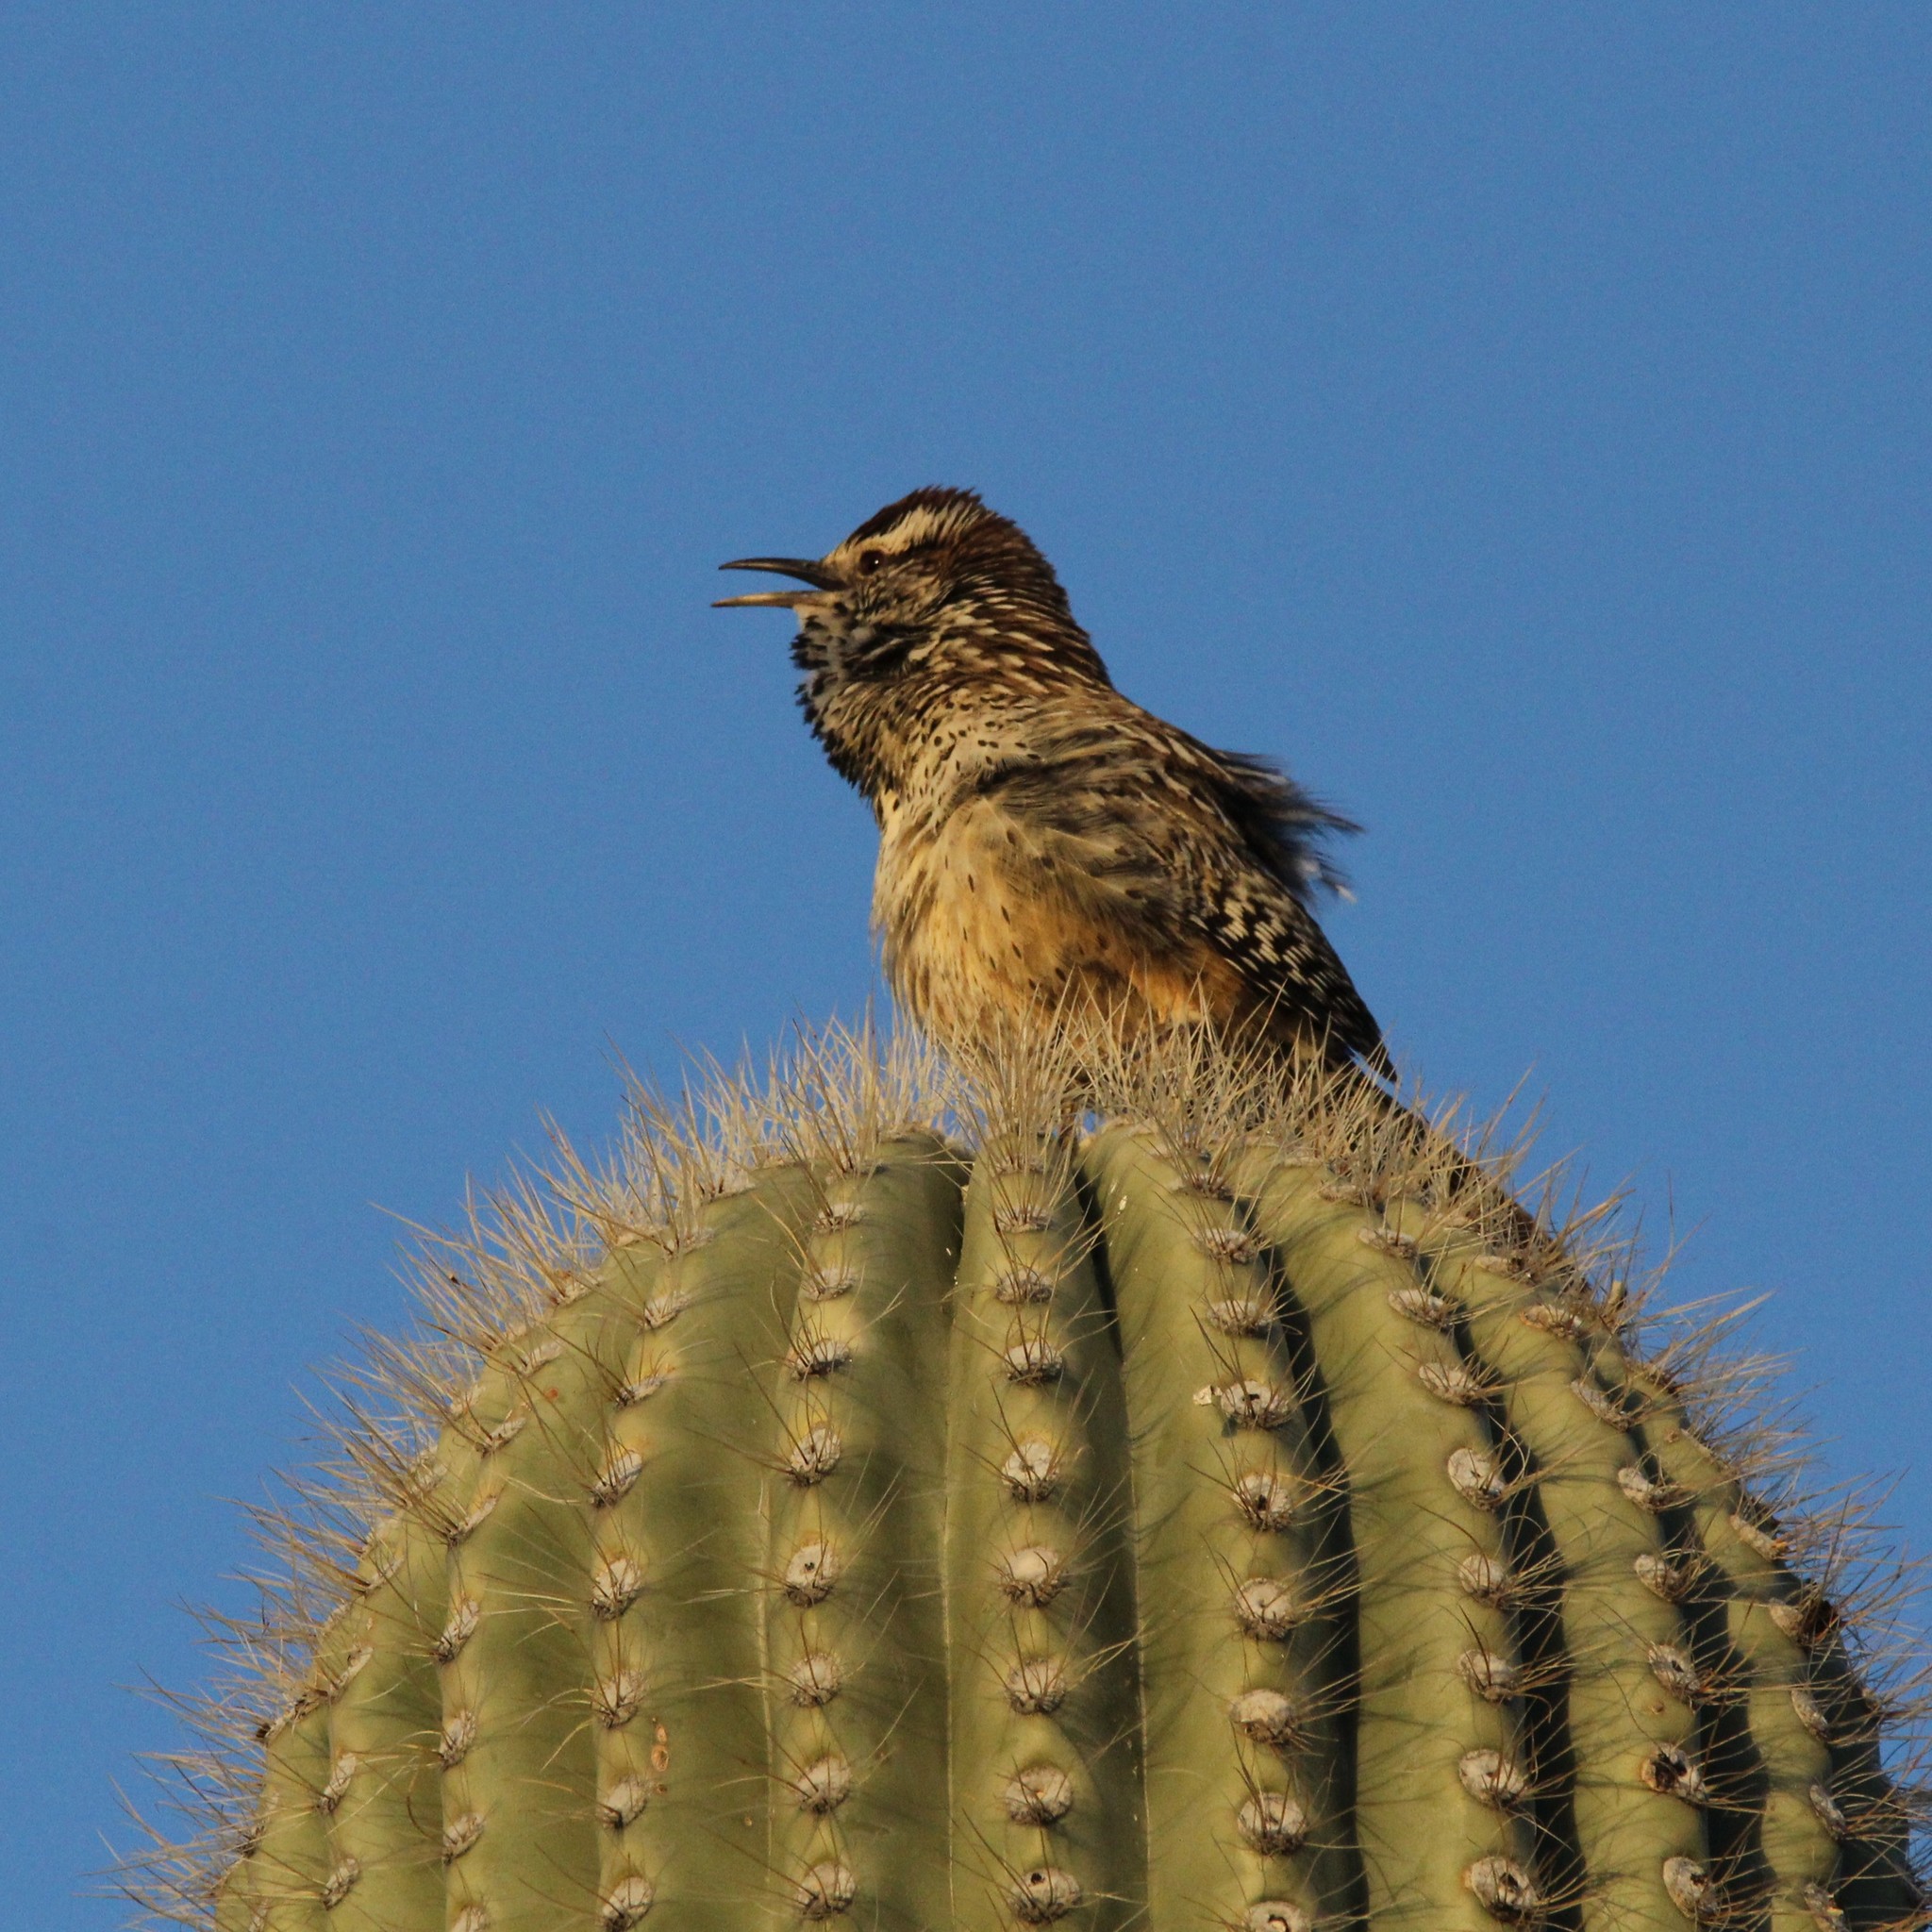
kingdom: Animalia
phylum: Chordata
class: Aves
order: Passeriformes
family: Troglodytidae
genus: Campylorhynchus
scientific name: Campylorhynchus brunneicapillus
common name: Cactus wren
